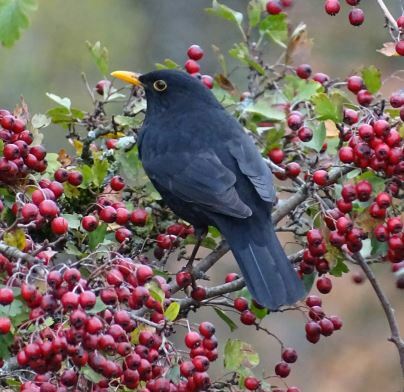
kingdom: Animalia
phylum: Chordata
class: Aves
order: Passeriformes
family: Turdidae
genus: Turdus
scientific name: Turdus merula
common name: Common blackbird
